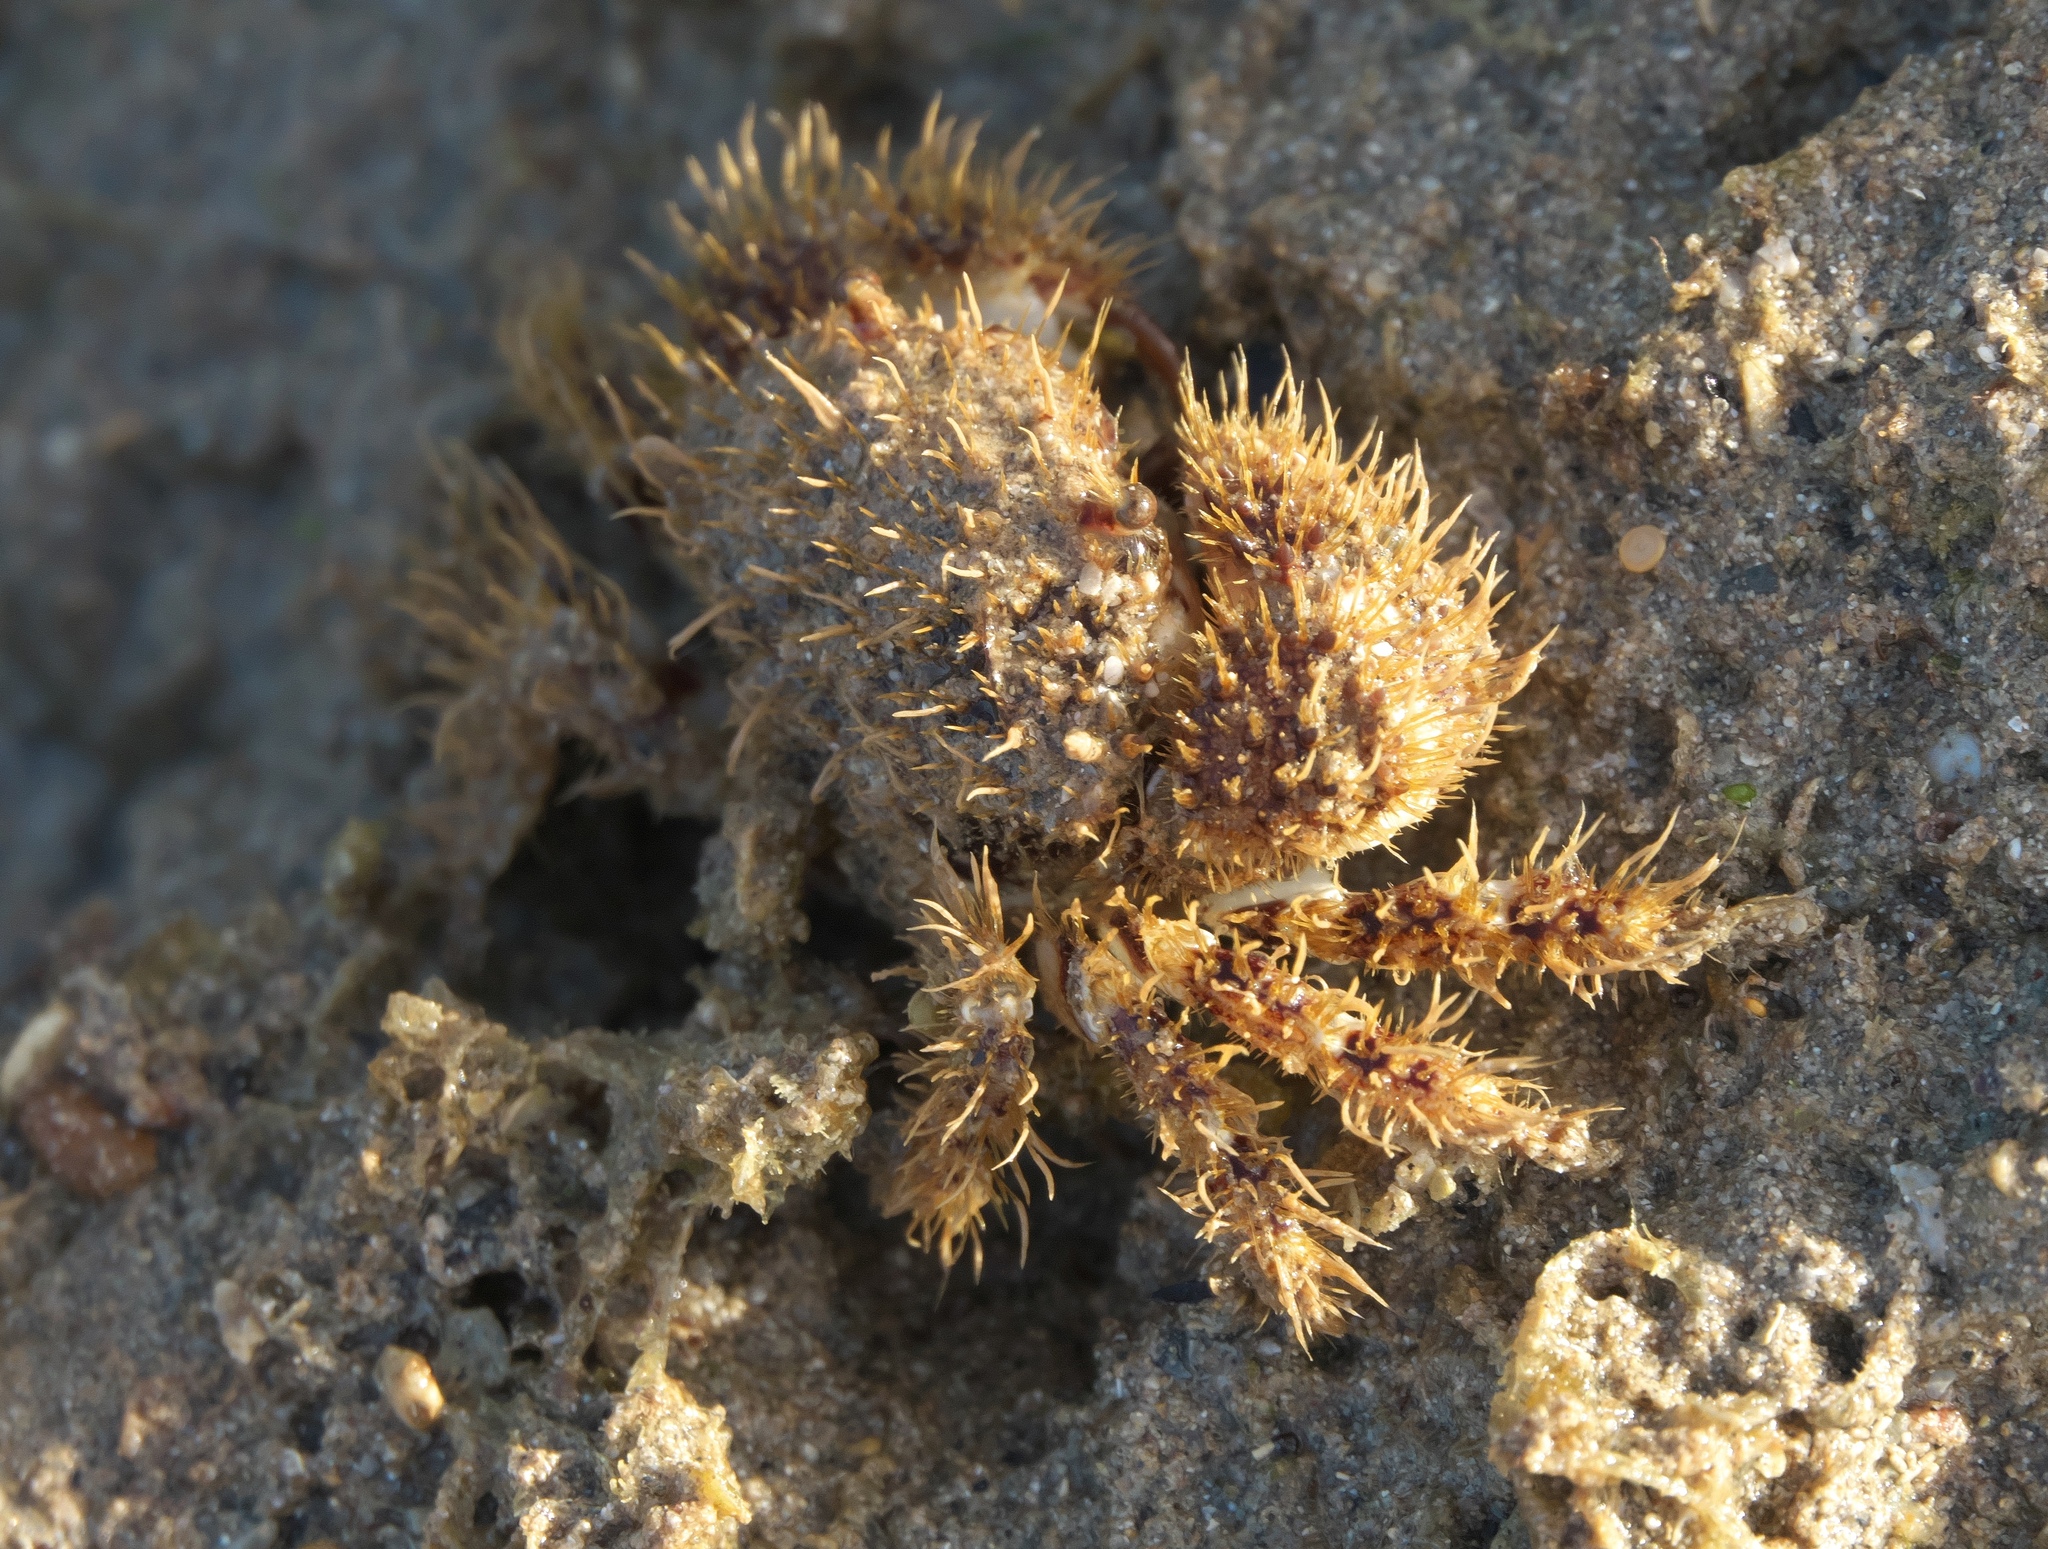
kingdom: Animalia
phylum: Arthropoda
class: Malacostraca
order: Decapoda
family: Pilumnidae
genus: Pilumnus
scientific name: Pilumnus vespertilio
